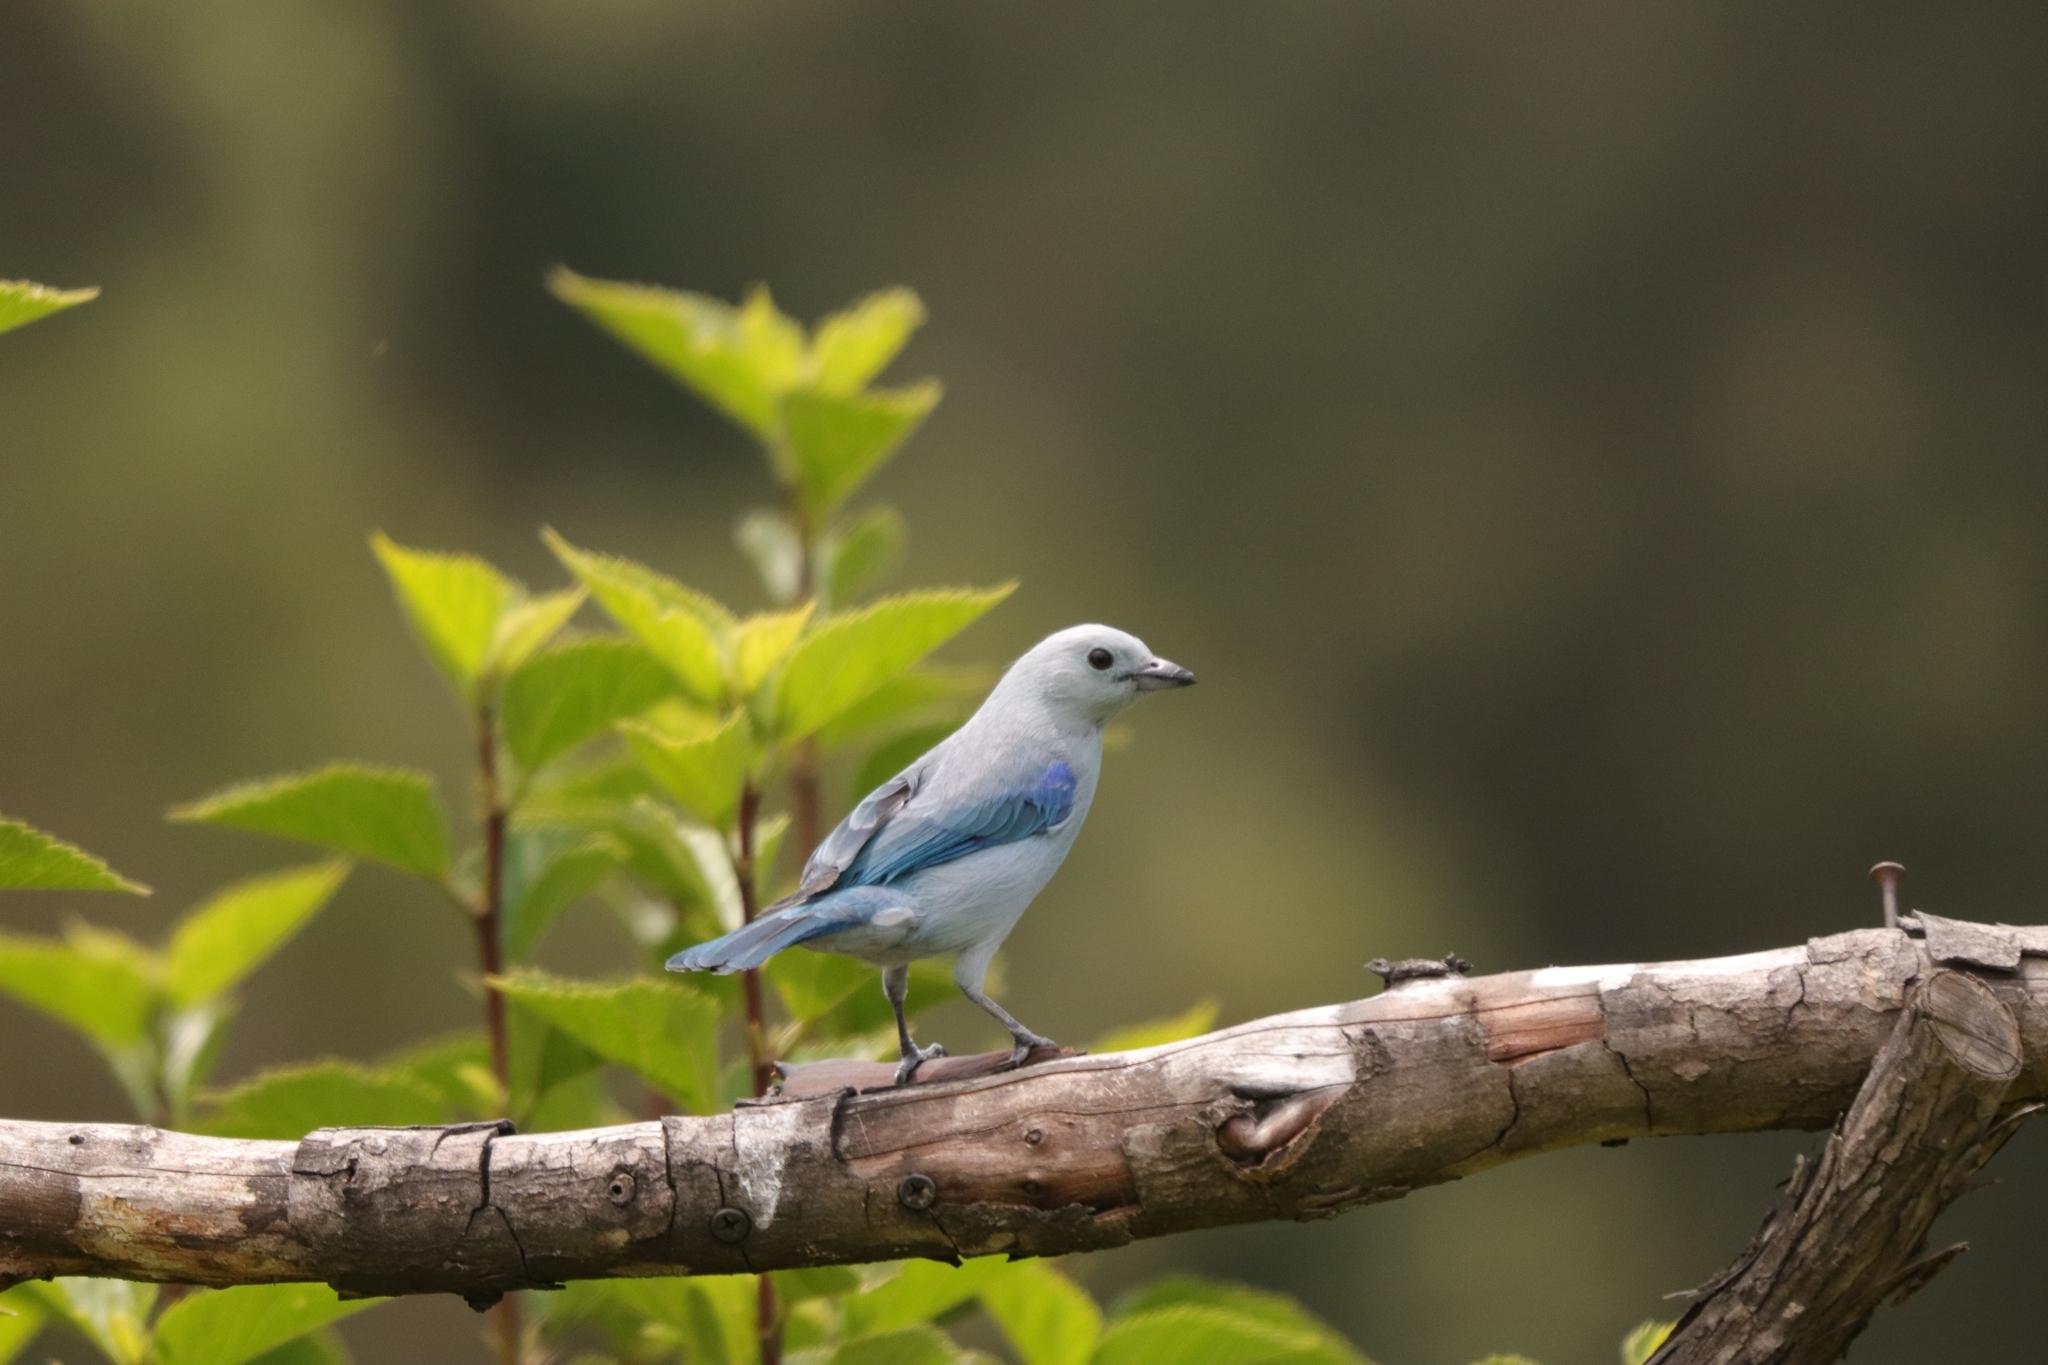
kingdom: Animalia
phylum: Chordata
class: Aves
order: Passeriformes
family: Thraupidae
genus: Thraupis
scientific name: Thraupis episcopus
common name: Blue-grey tanager
